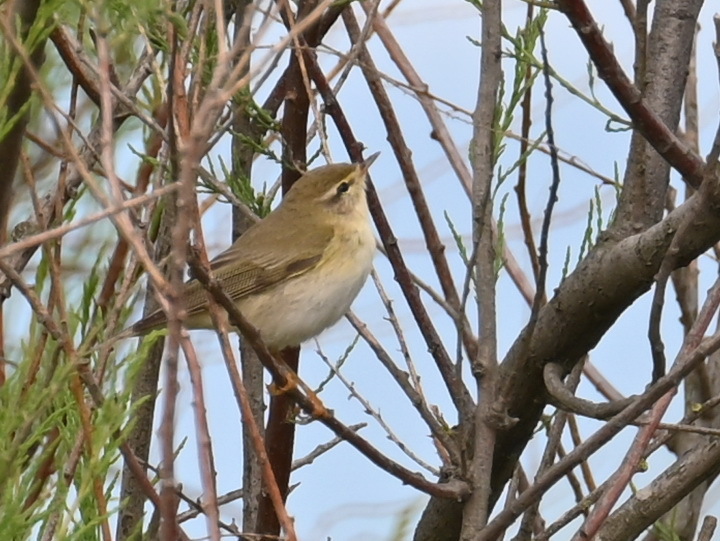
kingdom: Animalia
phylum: Chordata
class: Aves
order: Passeriformes
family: Phylloscopidae
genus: Phylloscopus
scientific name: Phylloscopus trochilus
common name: Willow warbler
